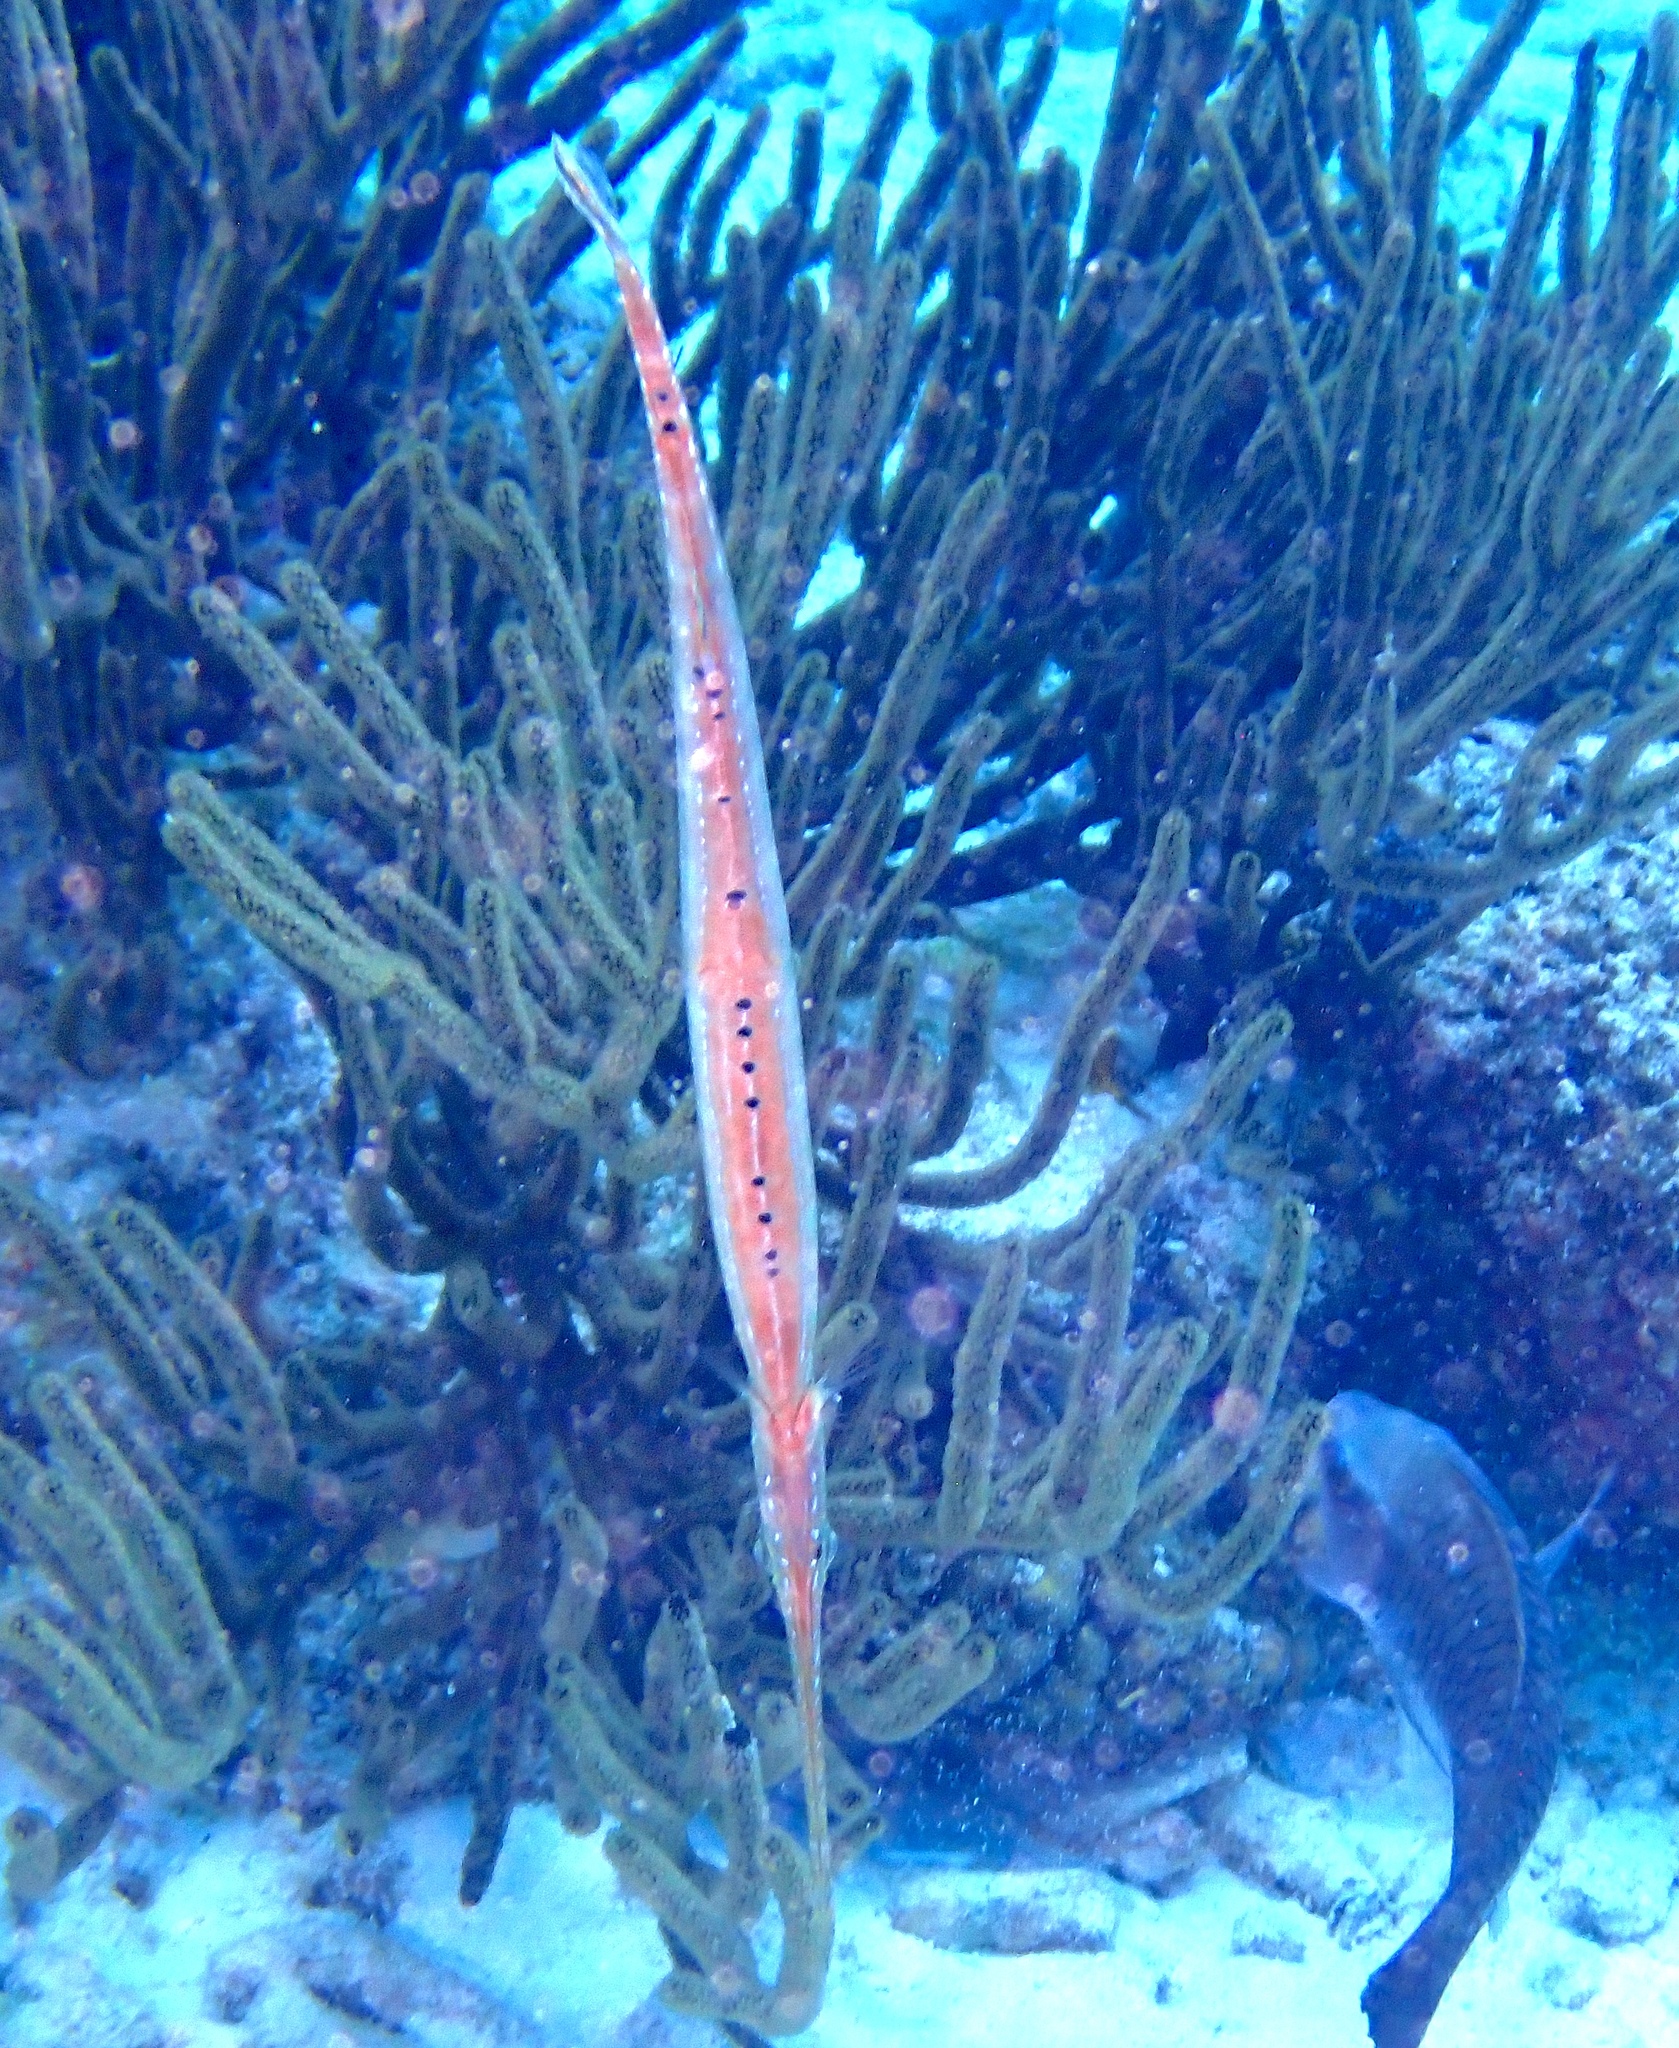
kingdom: Animalia
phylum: Chordata
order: Syngnathiformes
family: Aulostomidae
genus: Aulostomus
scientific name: Aulostomus maculatus
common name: West atlantic trumpetfish
